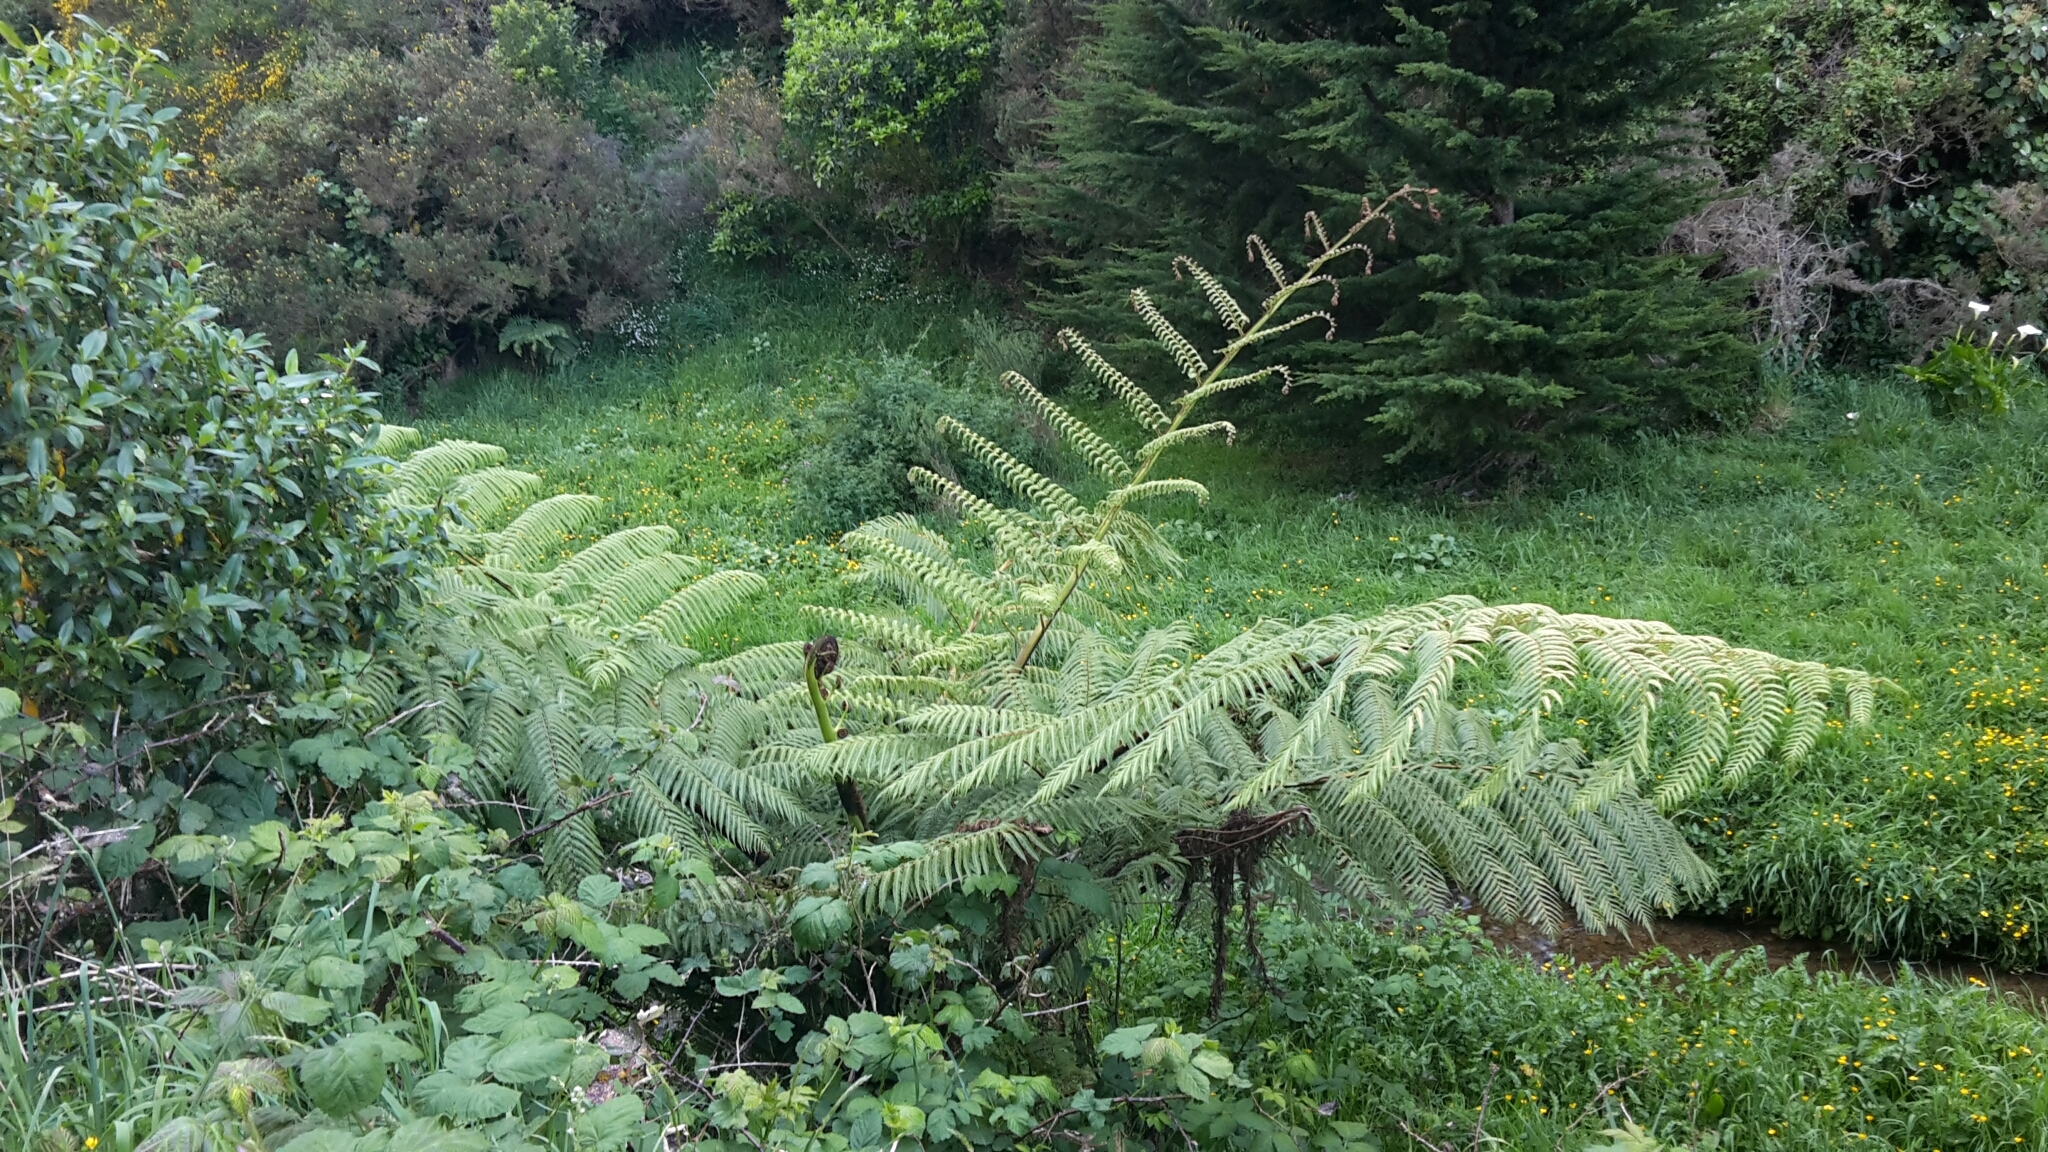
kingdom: Plantae
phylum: Tracheophyta
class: Polypodiopsida
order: Cyatheales
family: Cyatheaceae
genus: Sphaeropteris
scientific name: Sphaeropteris medullaris
